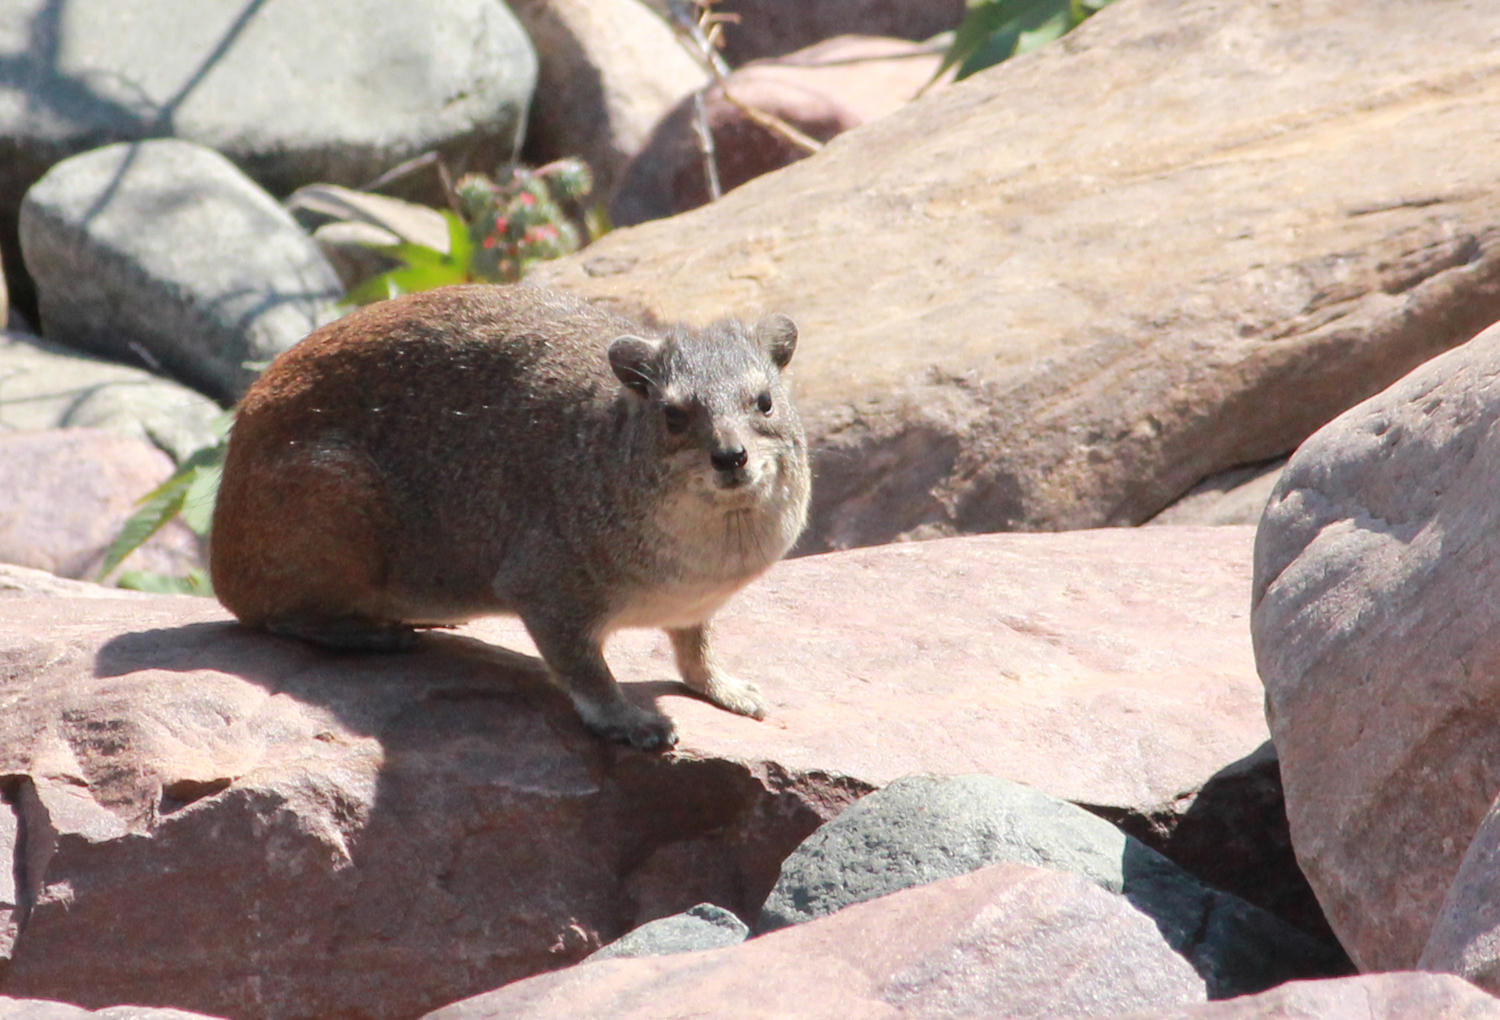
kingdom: Animalia
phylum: Chordata
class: Mammalia
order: Hyracoidea
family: Procaviidae
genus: Heterohyrax
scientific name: Heterohyrax brucei
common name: Bush hyrax
